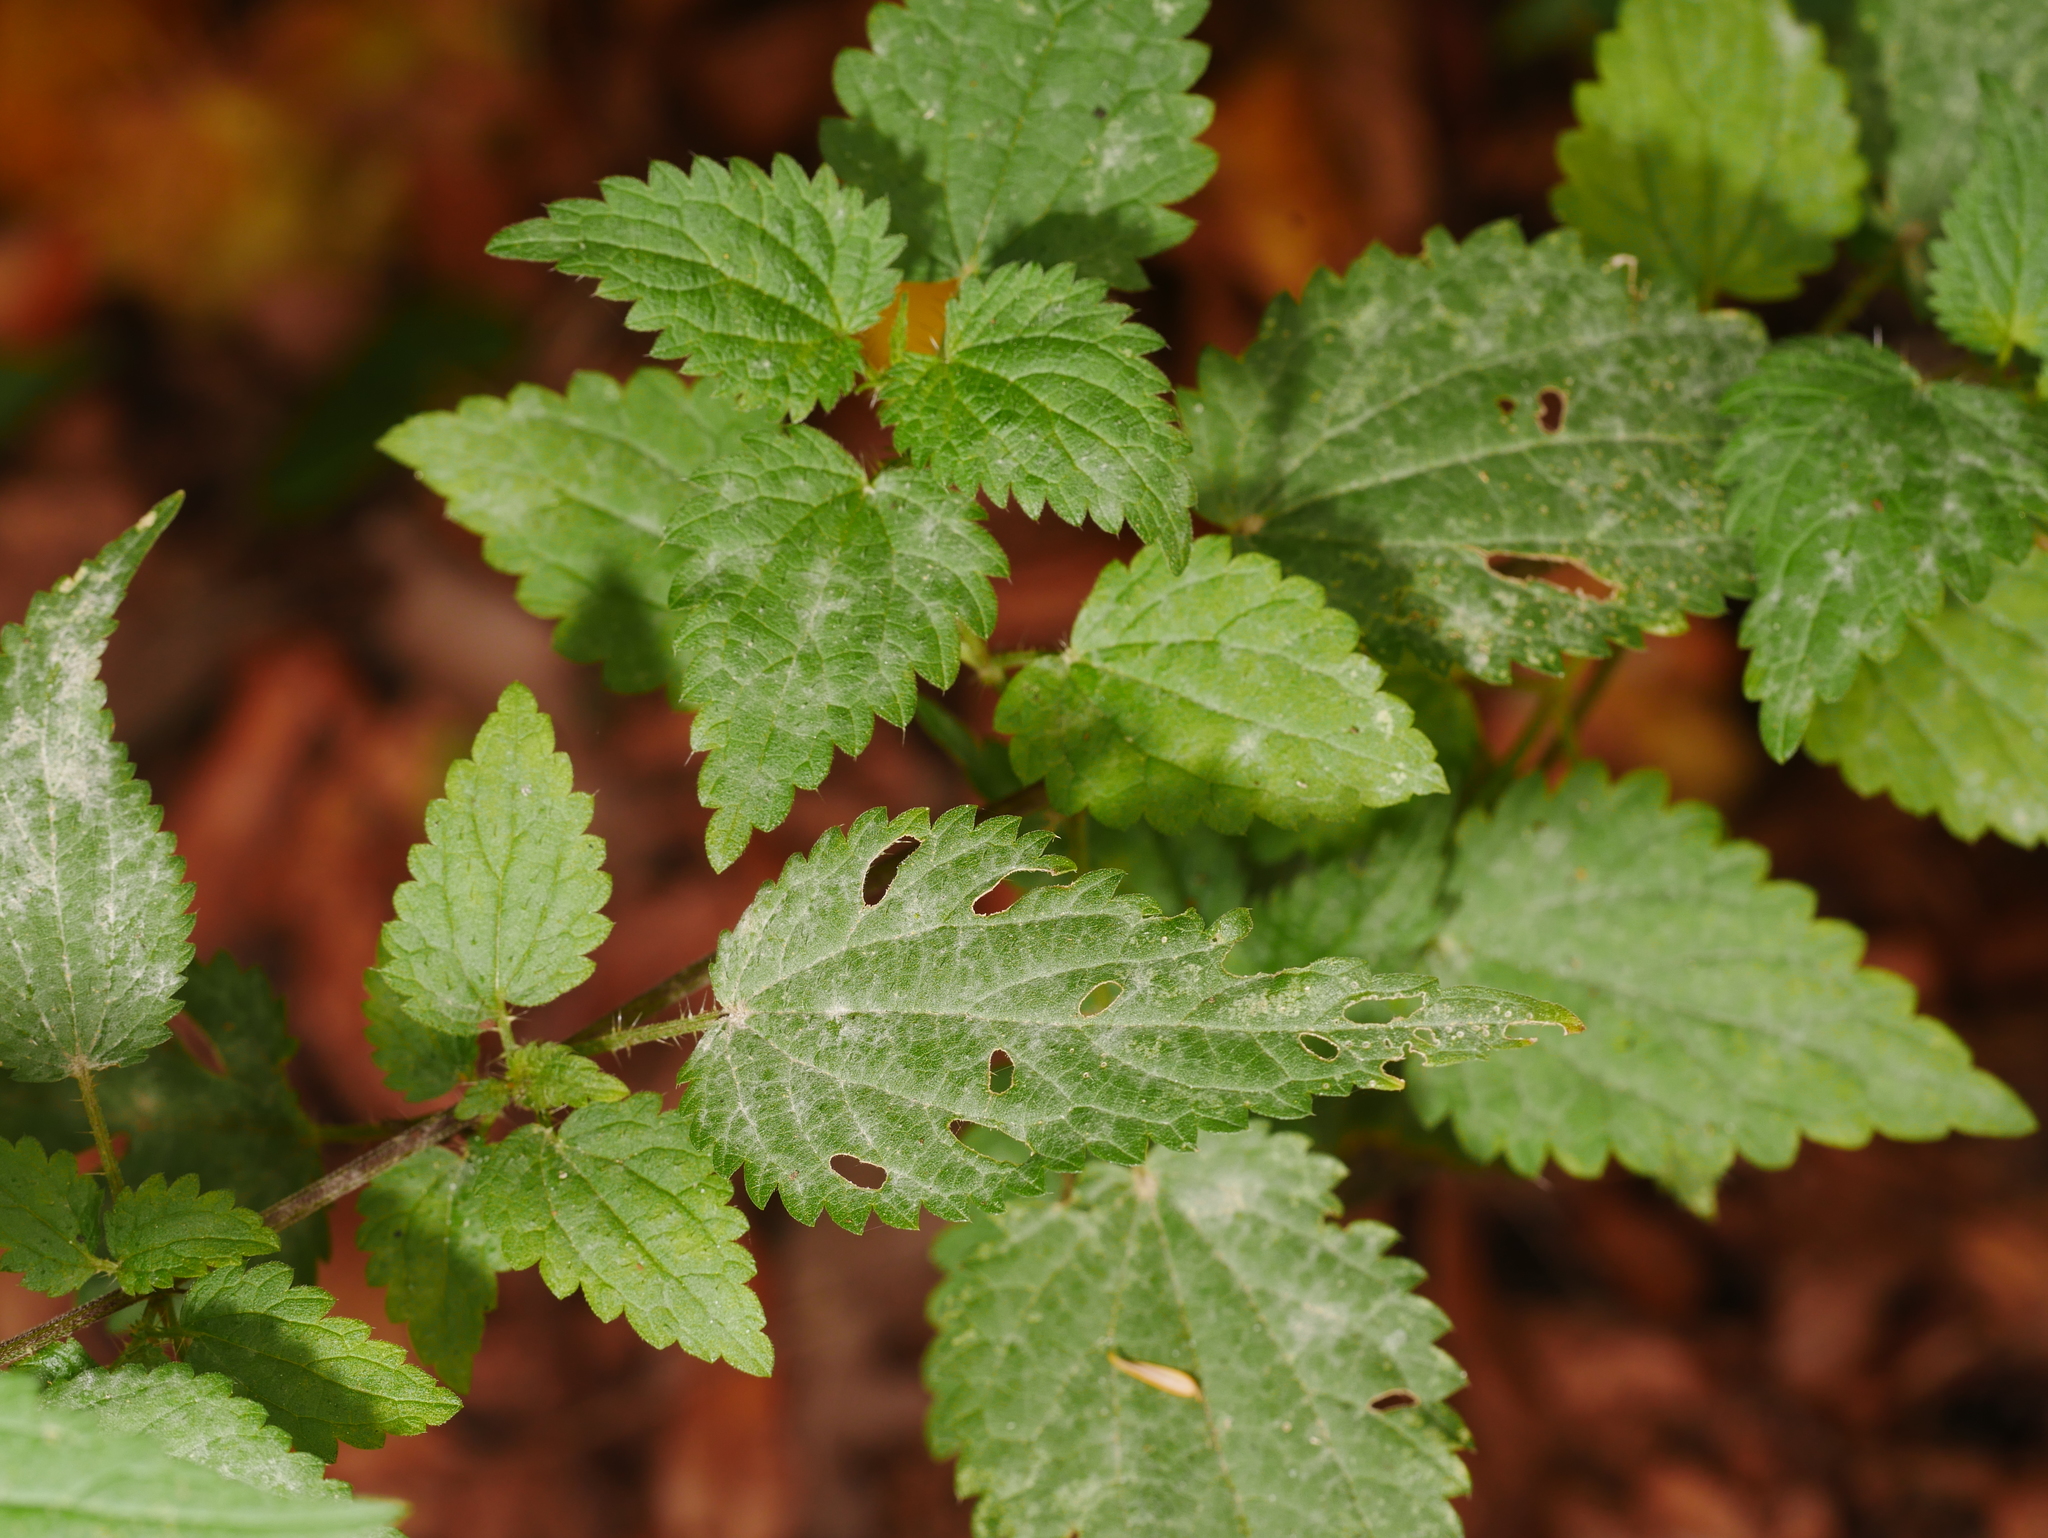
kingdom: Plantae
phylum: Tracheophyta
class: Magnoliopsida
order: Rosales
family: Urticaceae
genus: Urtica
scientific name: Urtica dioica
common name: Common nettle
